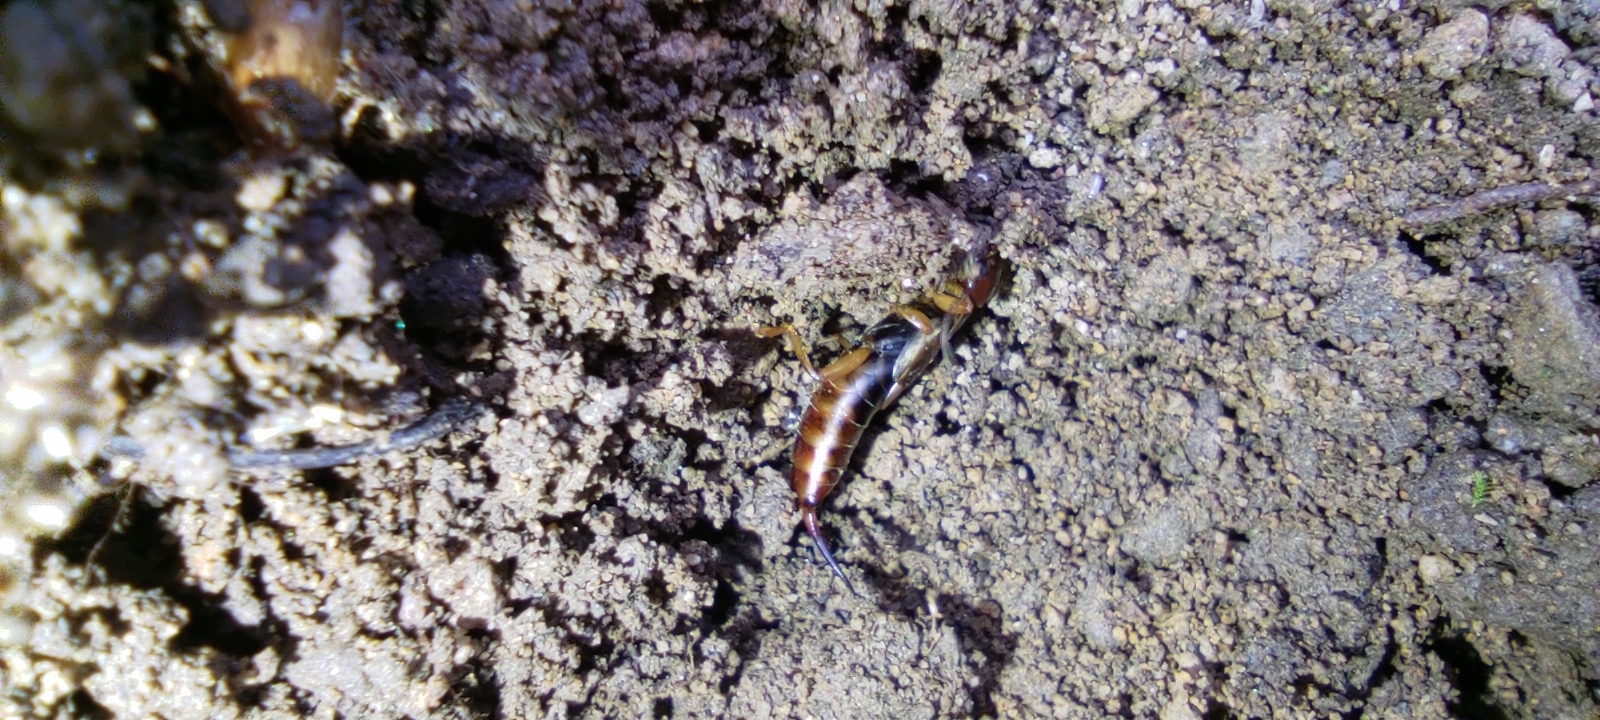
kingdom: Animalia
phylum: Arthropoda
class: Insecta
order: Dermaptera
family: Forficulidae
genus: Forficula
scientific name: Forficula
